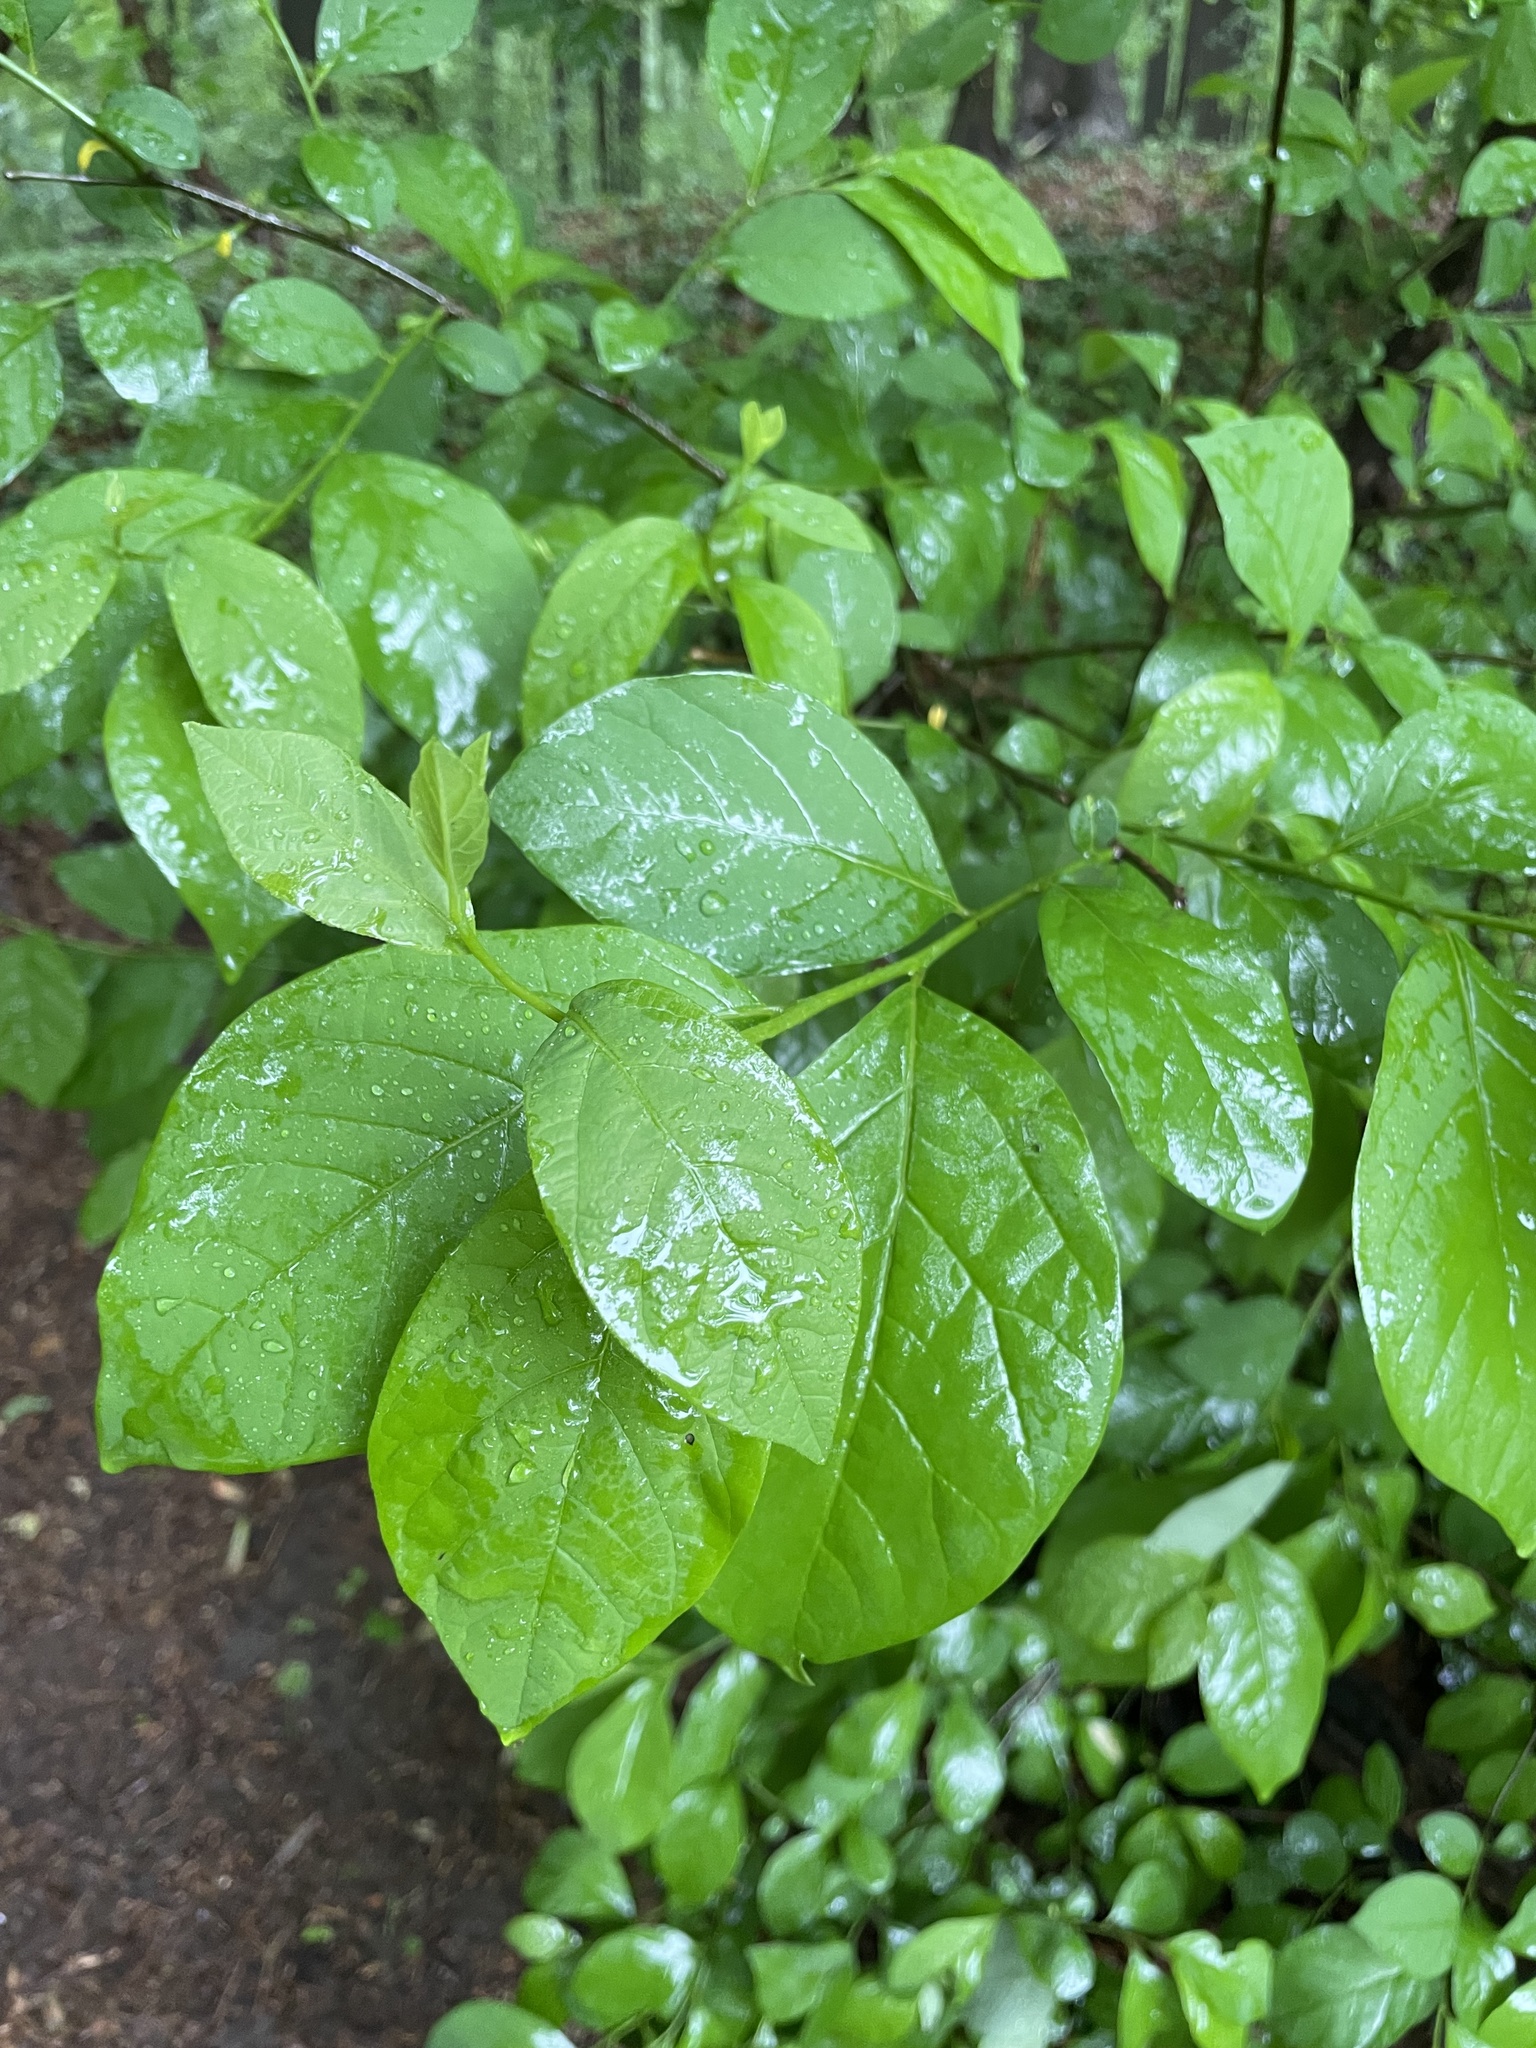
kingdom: Plantae
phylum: Tracheophyta
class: Magnoliopsida
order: Laurales
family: Lauraceae
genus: Lindera
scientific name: Lindera benzoin
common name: Spicebush
